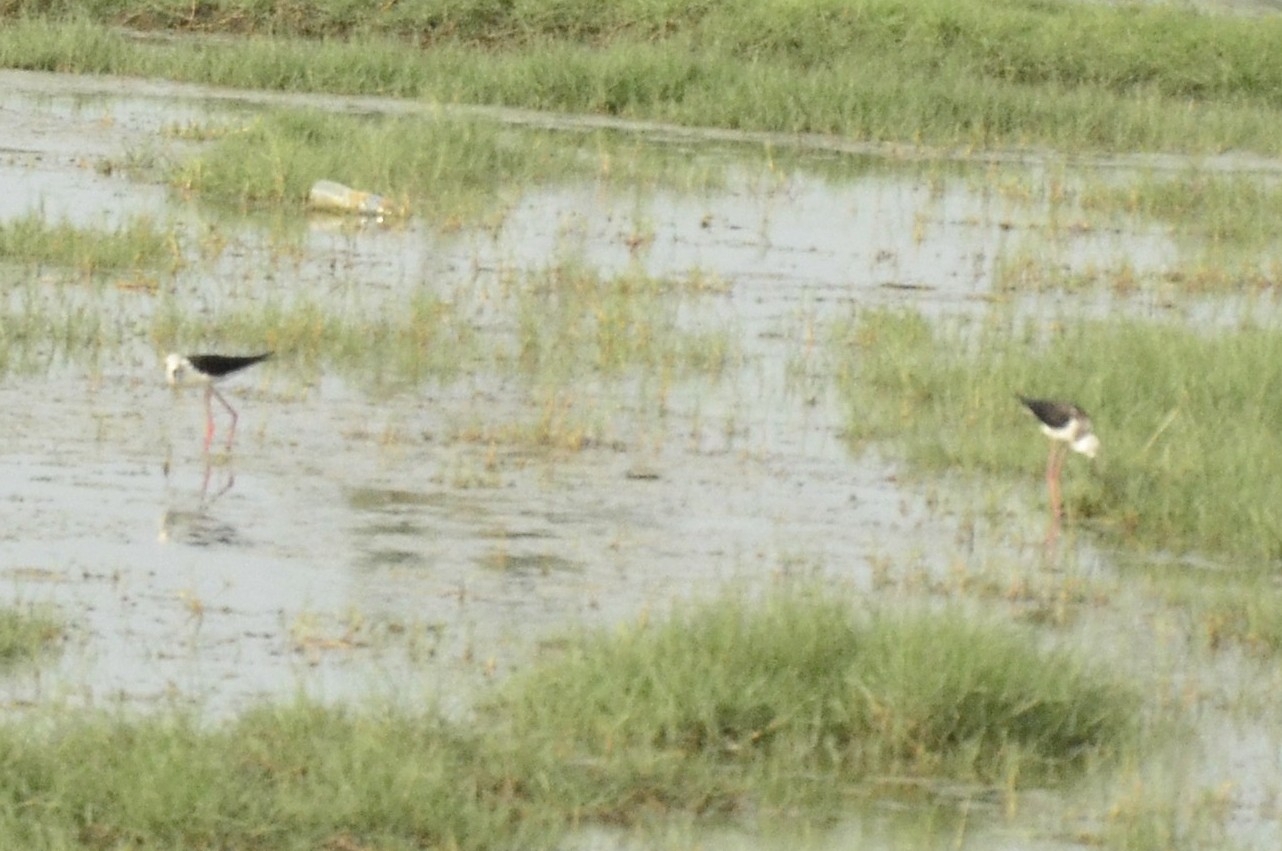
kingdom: Animalia
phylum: Chordata
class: Aves
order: Charadriiformes
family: Recurvirostridae
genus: Himantopus
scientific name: Himantopus himantopus
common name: Black-winged stilt
